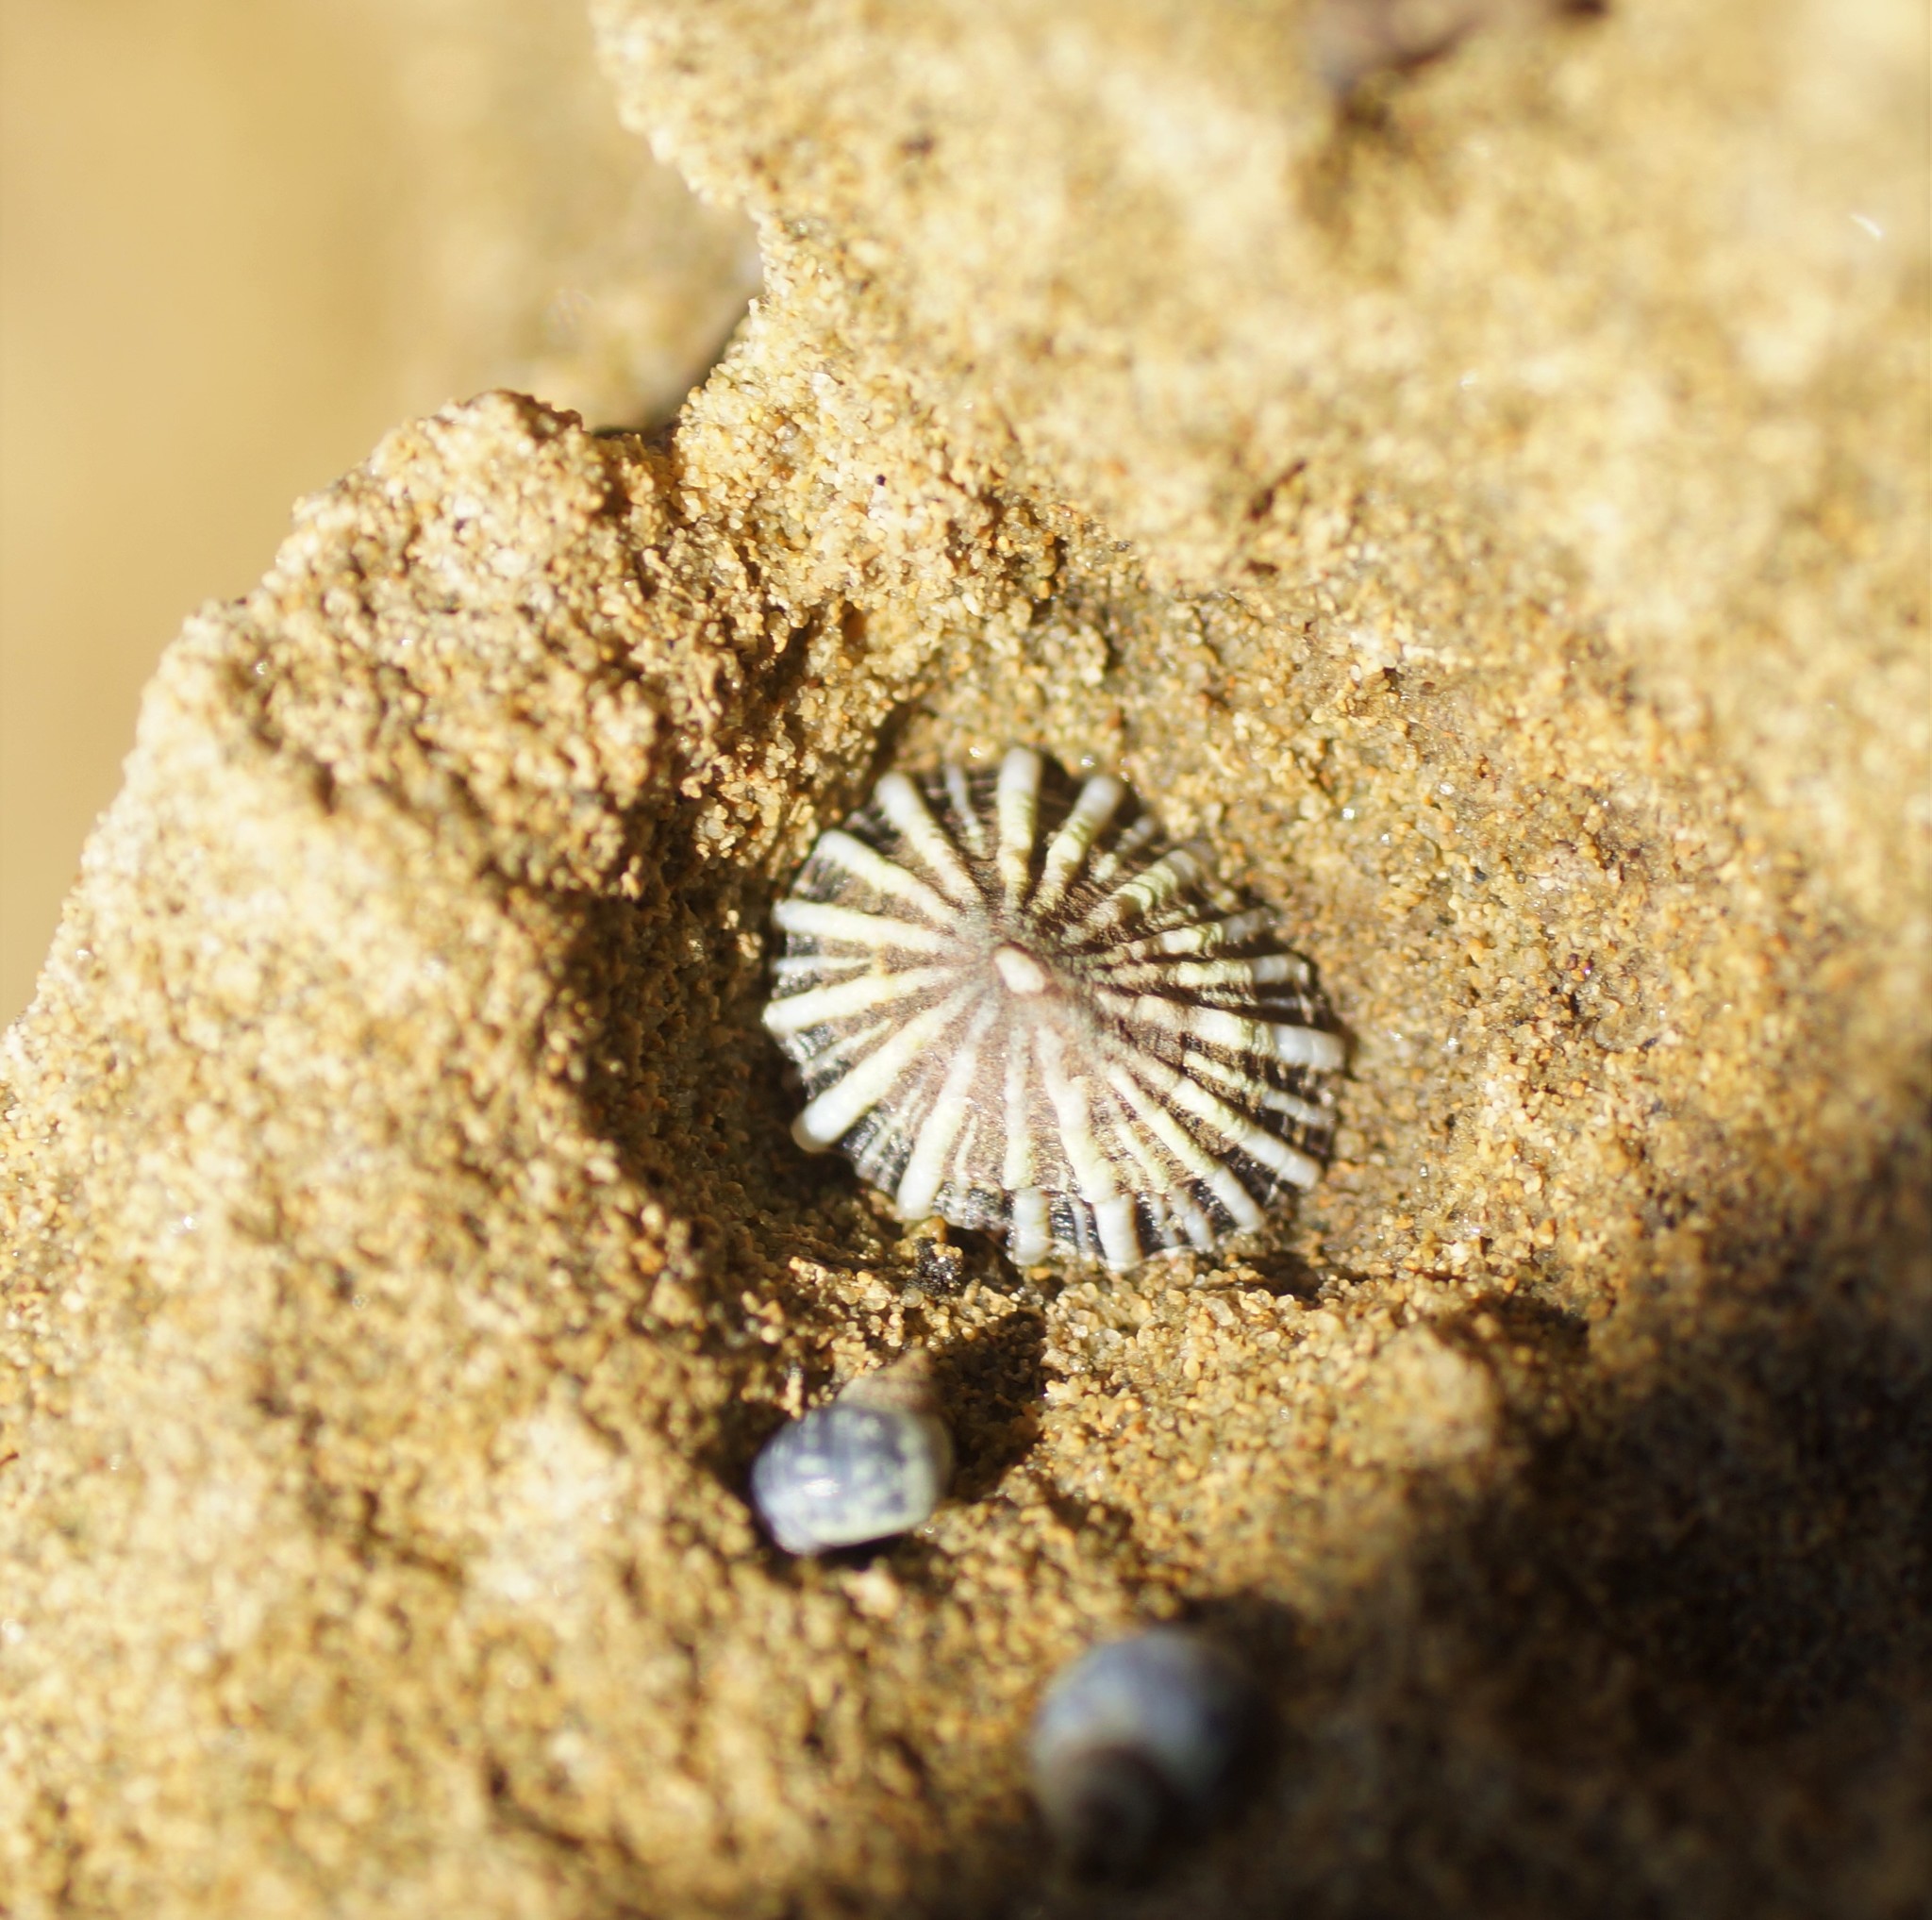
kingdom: Animalia
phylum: Mollusca
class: Gastropoda
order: Siphonariida
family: Siphonariidae
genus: Siphonaria
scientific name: Siphonaria diemenensis
